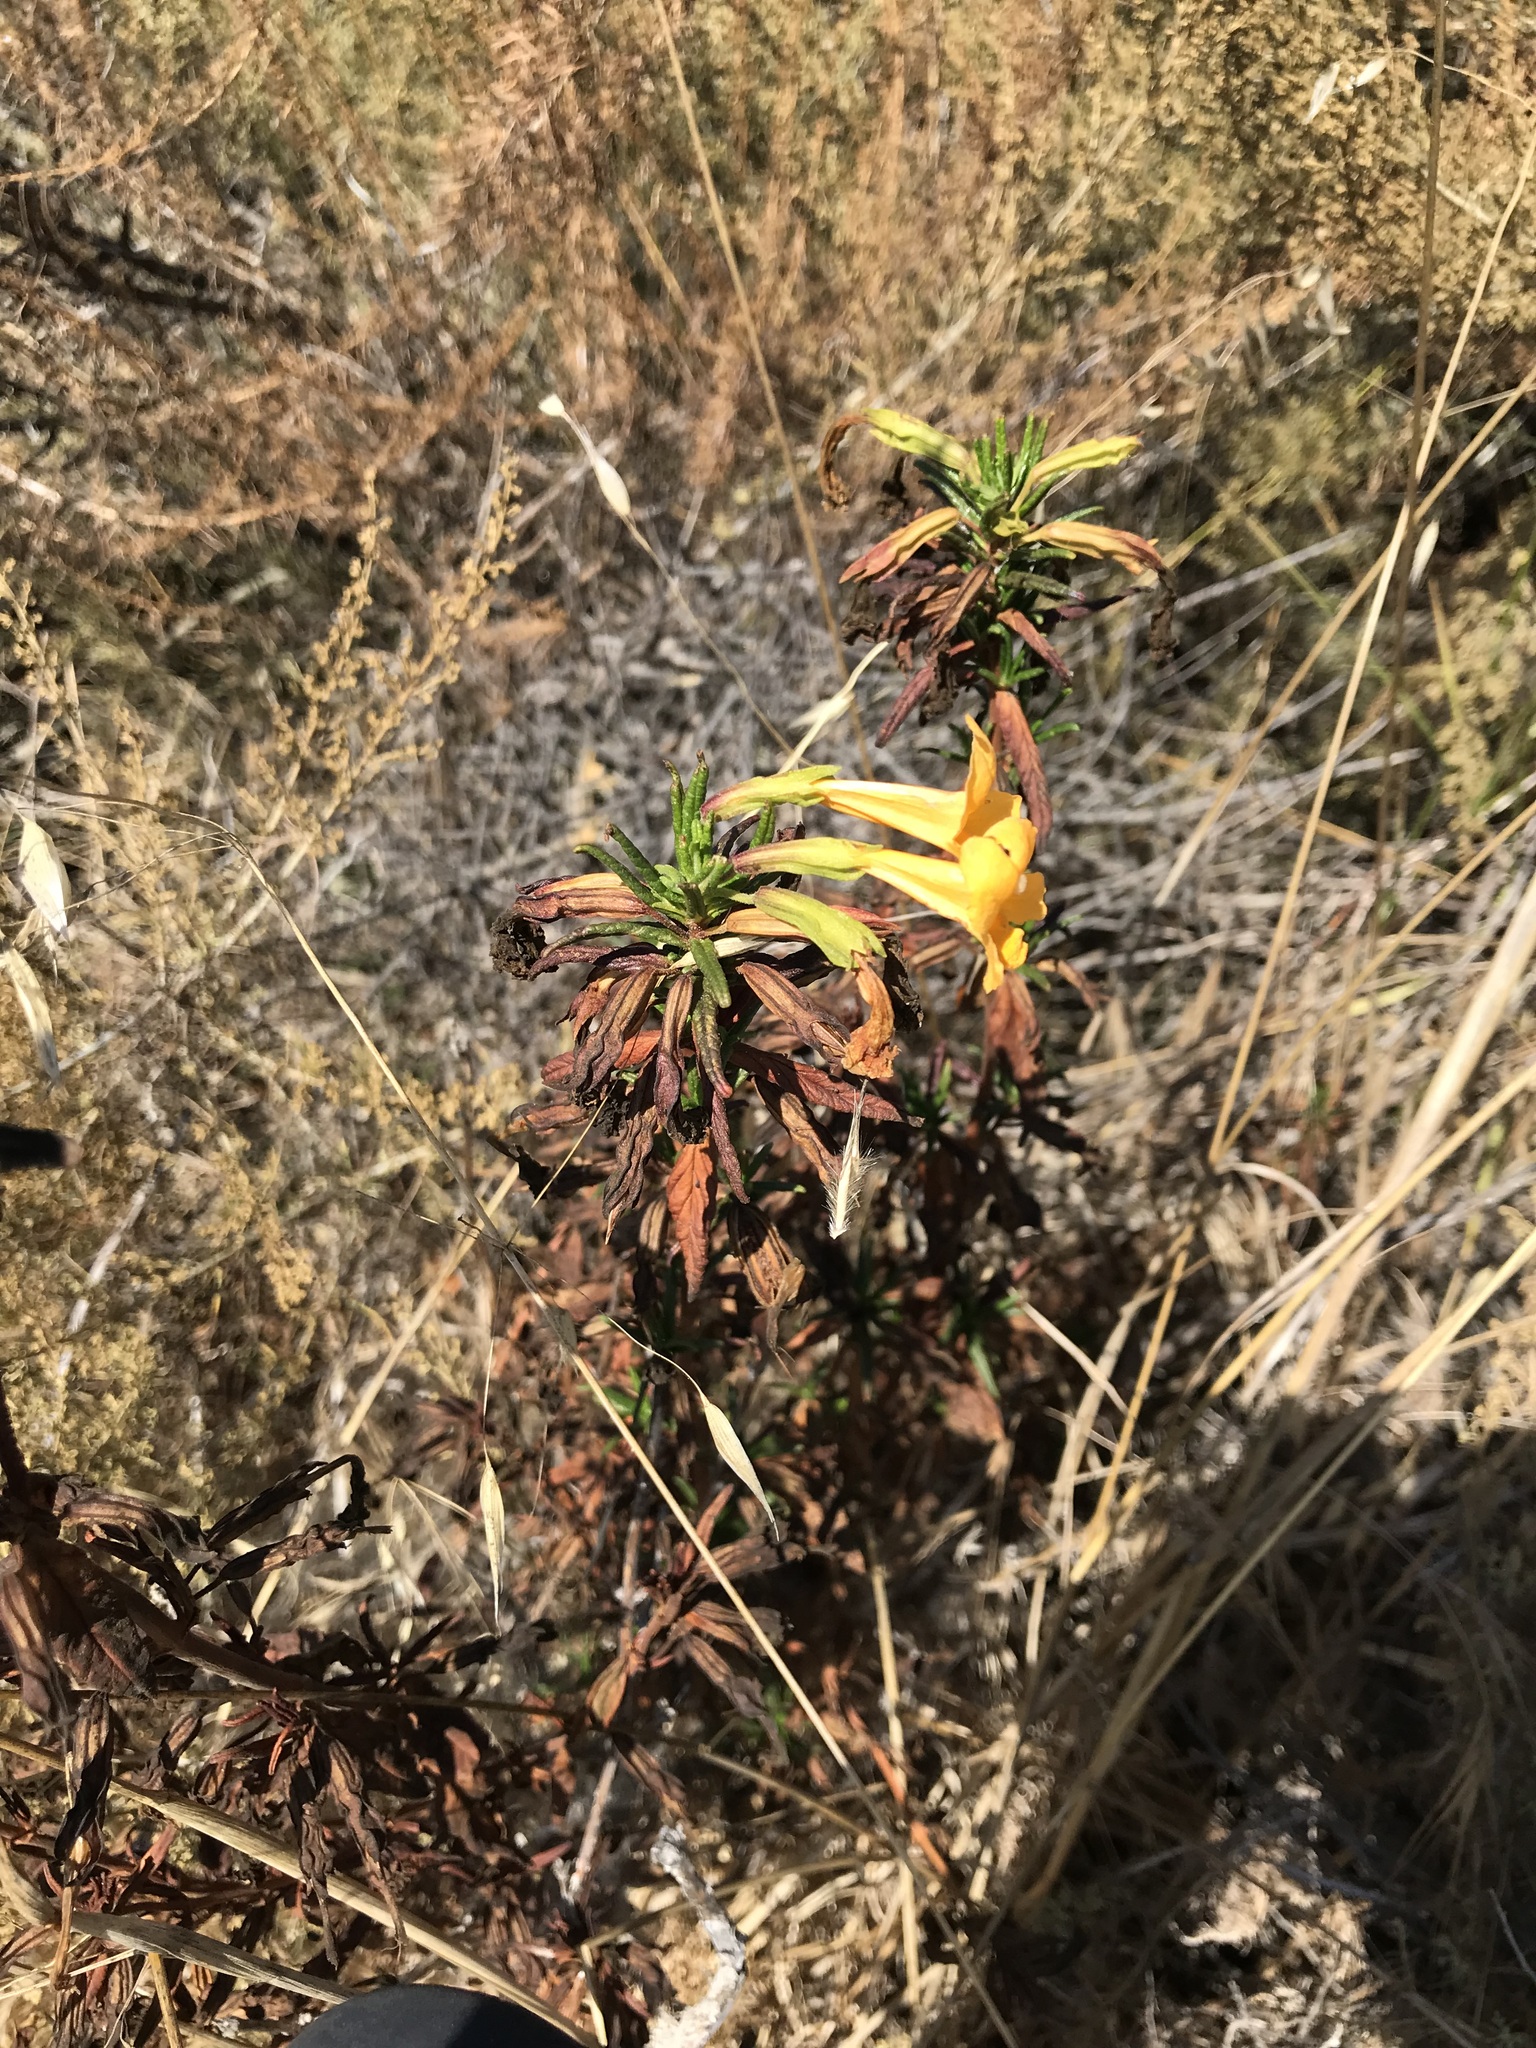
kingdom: Plantae
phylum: Tracheophyta
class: Magnoliopsida
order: Lamiales
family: Phrymaceae
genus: Diplacus
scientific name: Diplacus aurantiacus
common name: Bush monkey-flower
